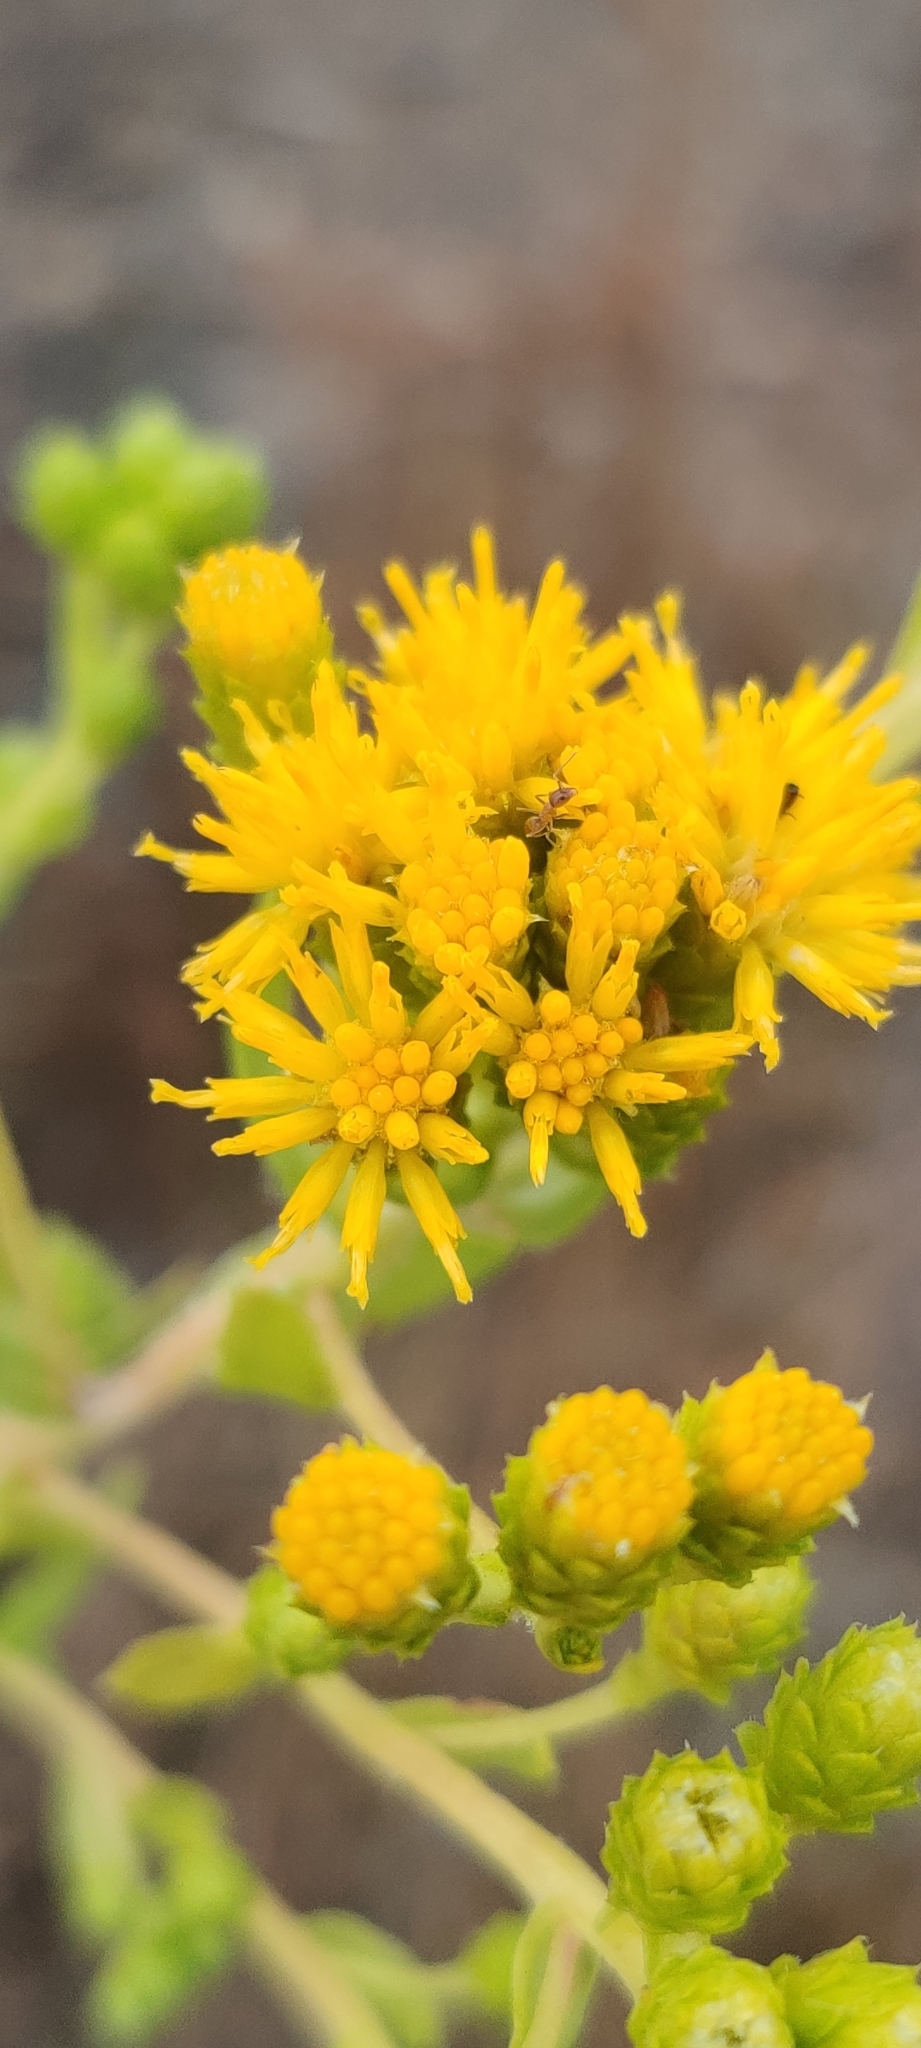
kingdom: Plantae
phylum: Tracheophyta
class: Magnoliopsida
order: Asterales
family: Asteraceae
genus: Isocoma
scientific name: Isocoma menziesii
